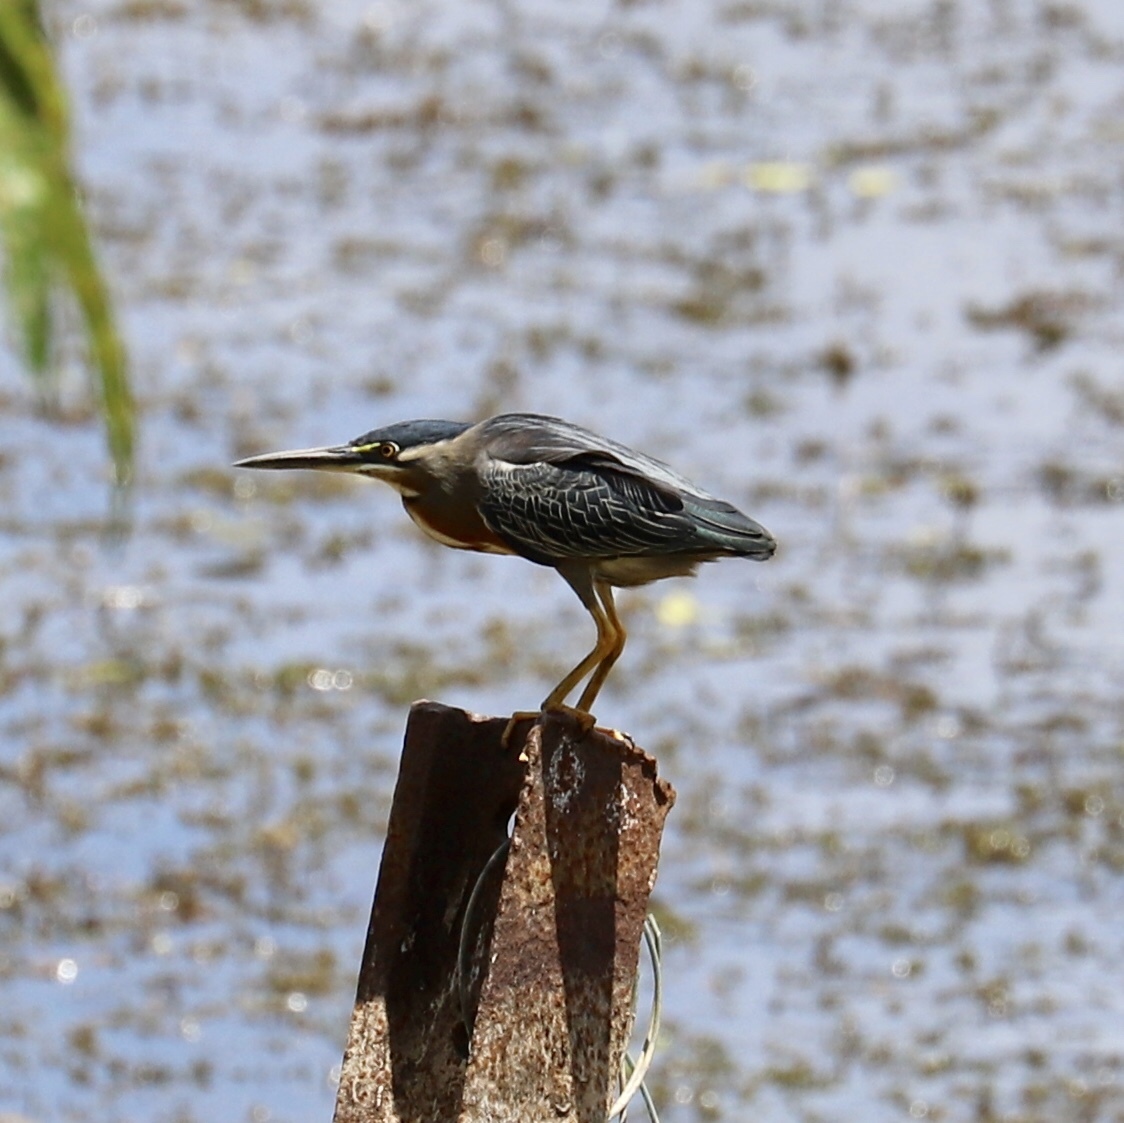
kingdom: Animalia
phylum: Chordata
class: Aves
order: Pelecaniformes
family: Ardeidae
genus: Butorides
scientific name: Butorides virescens
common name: Green heron
